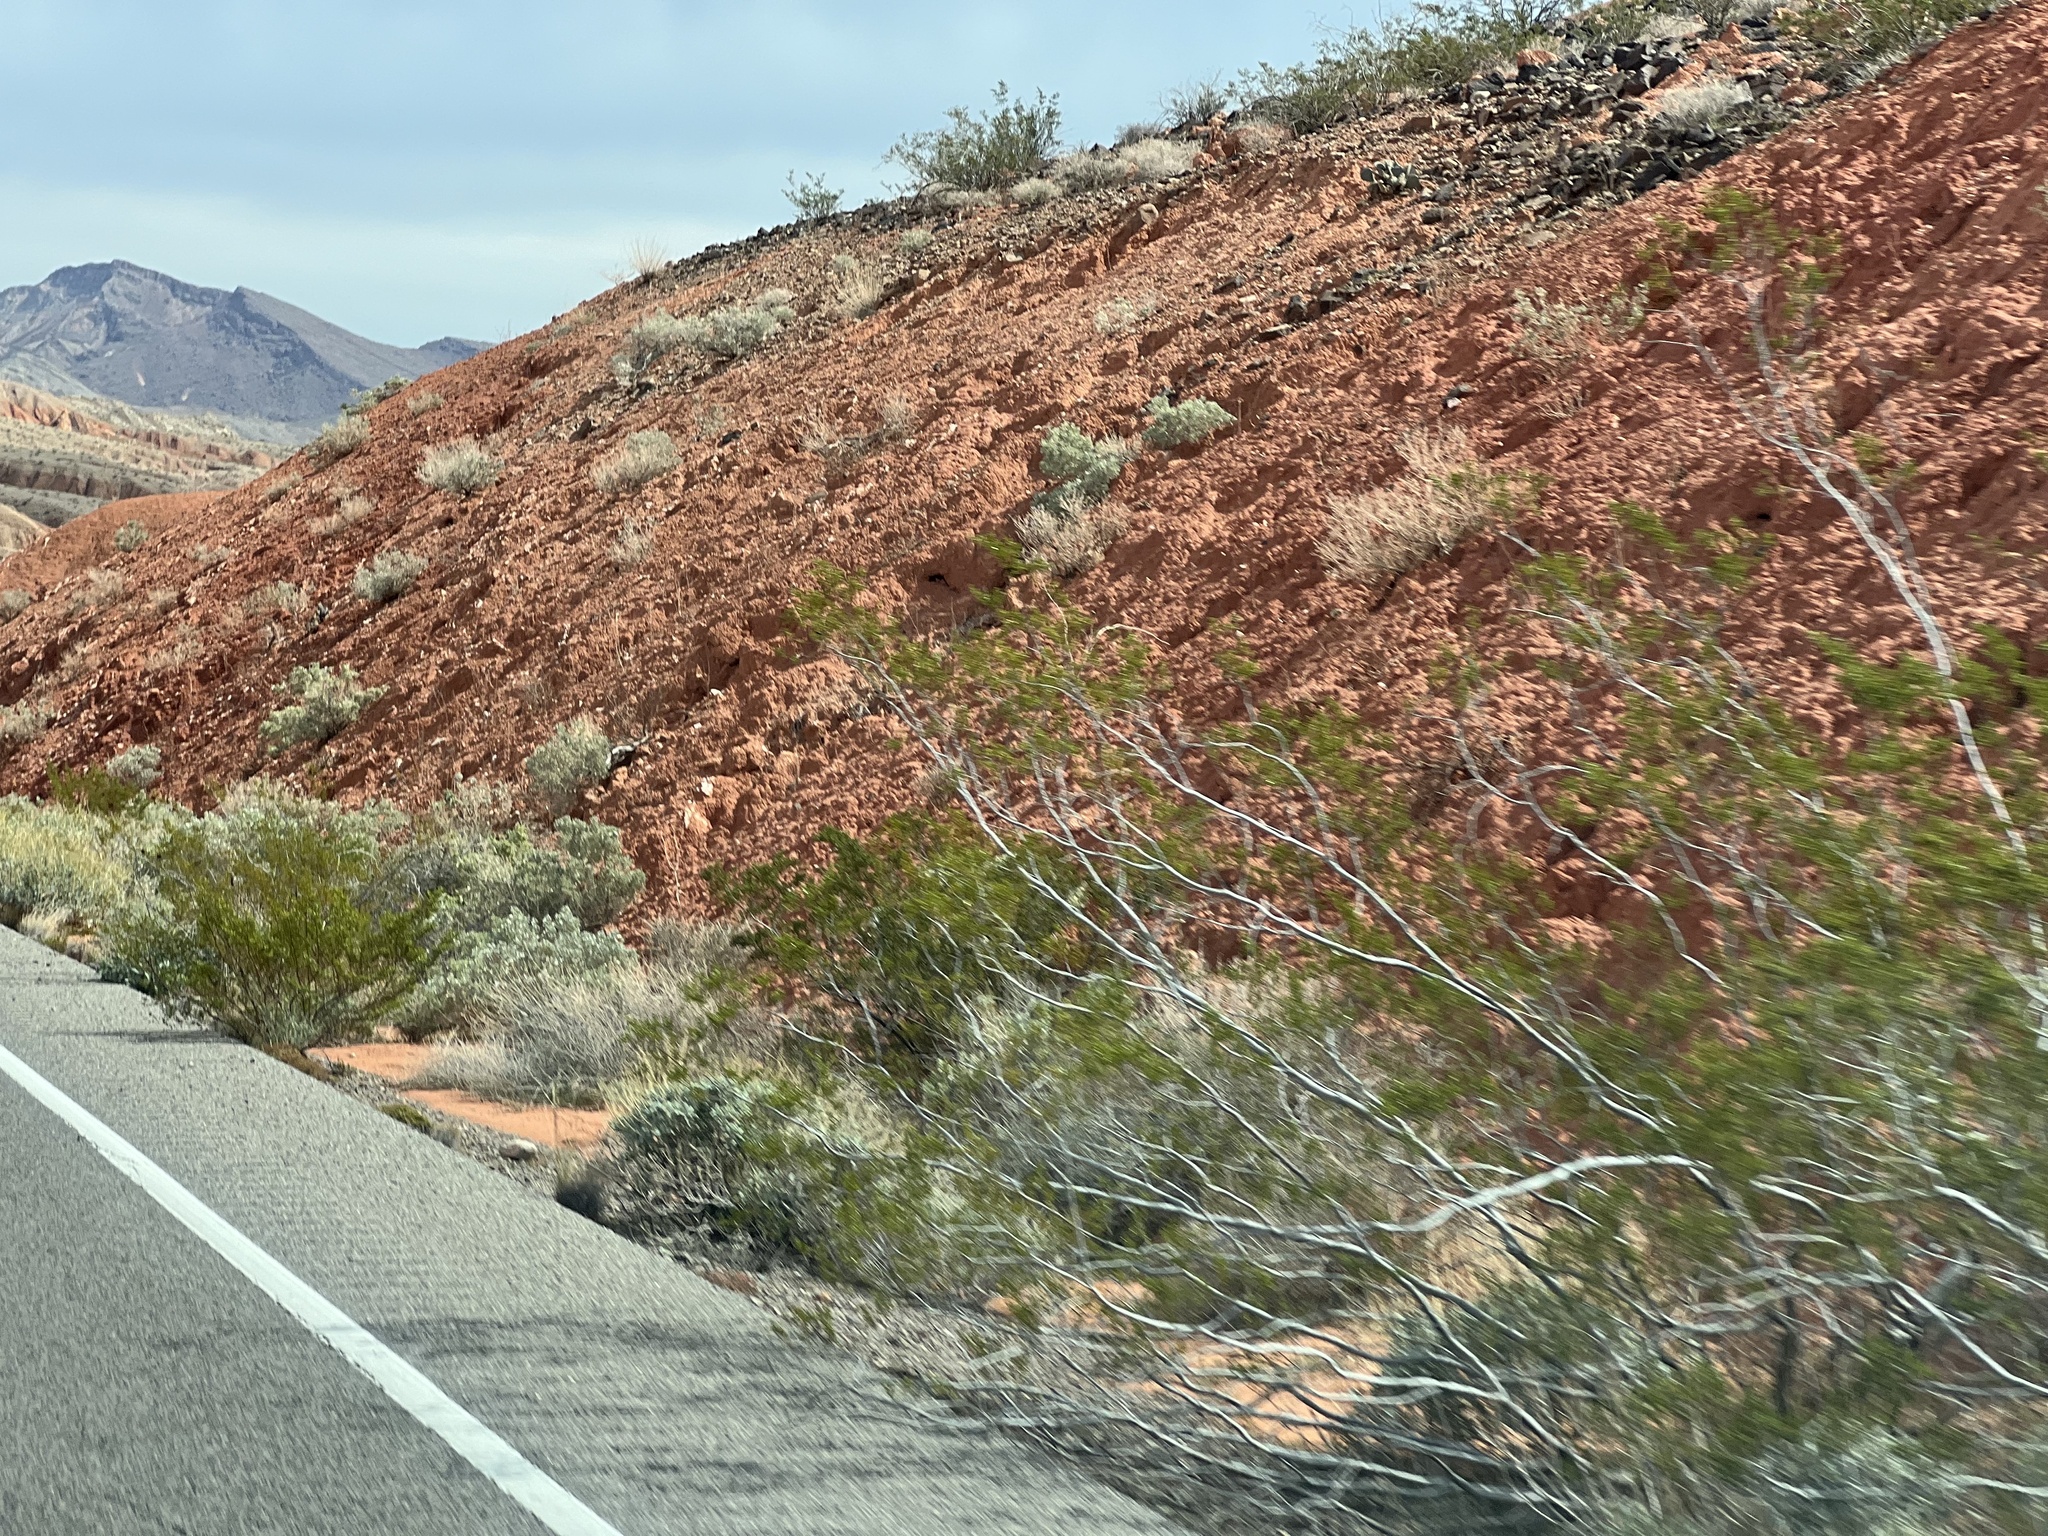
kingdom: Plantae
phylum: Tracheophyta
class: Magnoliopsida
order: Zygophyllales
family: Zygophyllaceae
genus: Larrea
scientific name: Larrea tridentata
